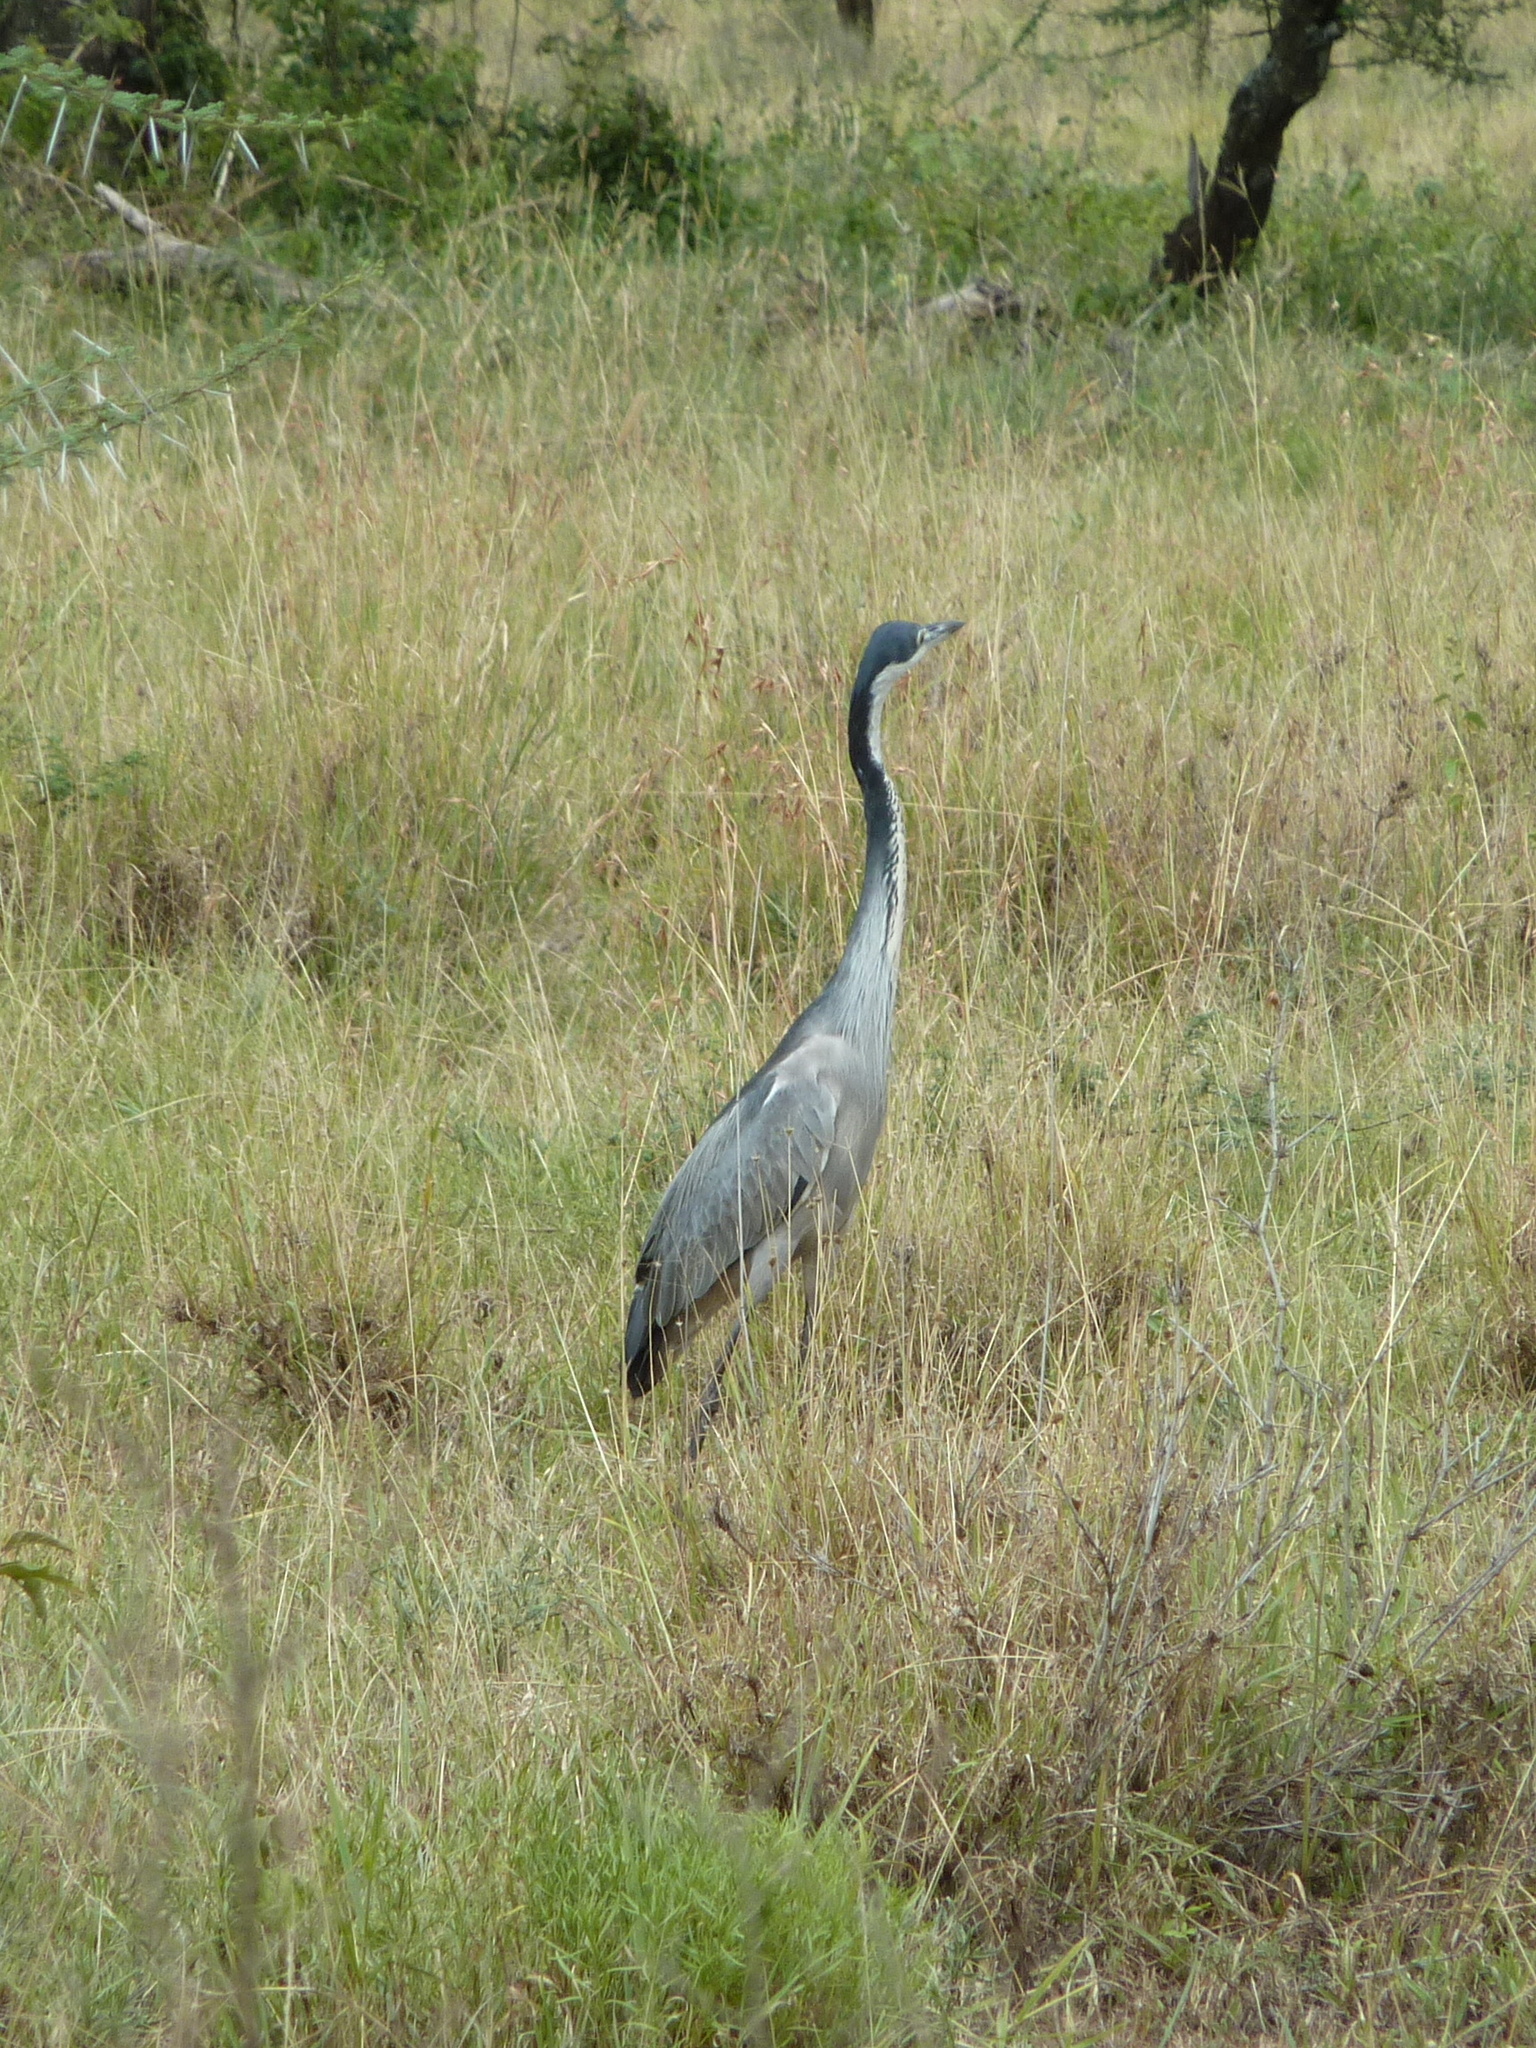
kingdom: Animalia
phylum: Chordata
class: Aves
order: Pelecaniformes
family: Ardeidae
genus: Ardea
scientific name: Ardea melanocephala
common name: Black-headed heron
